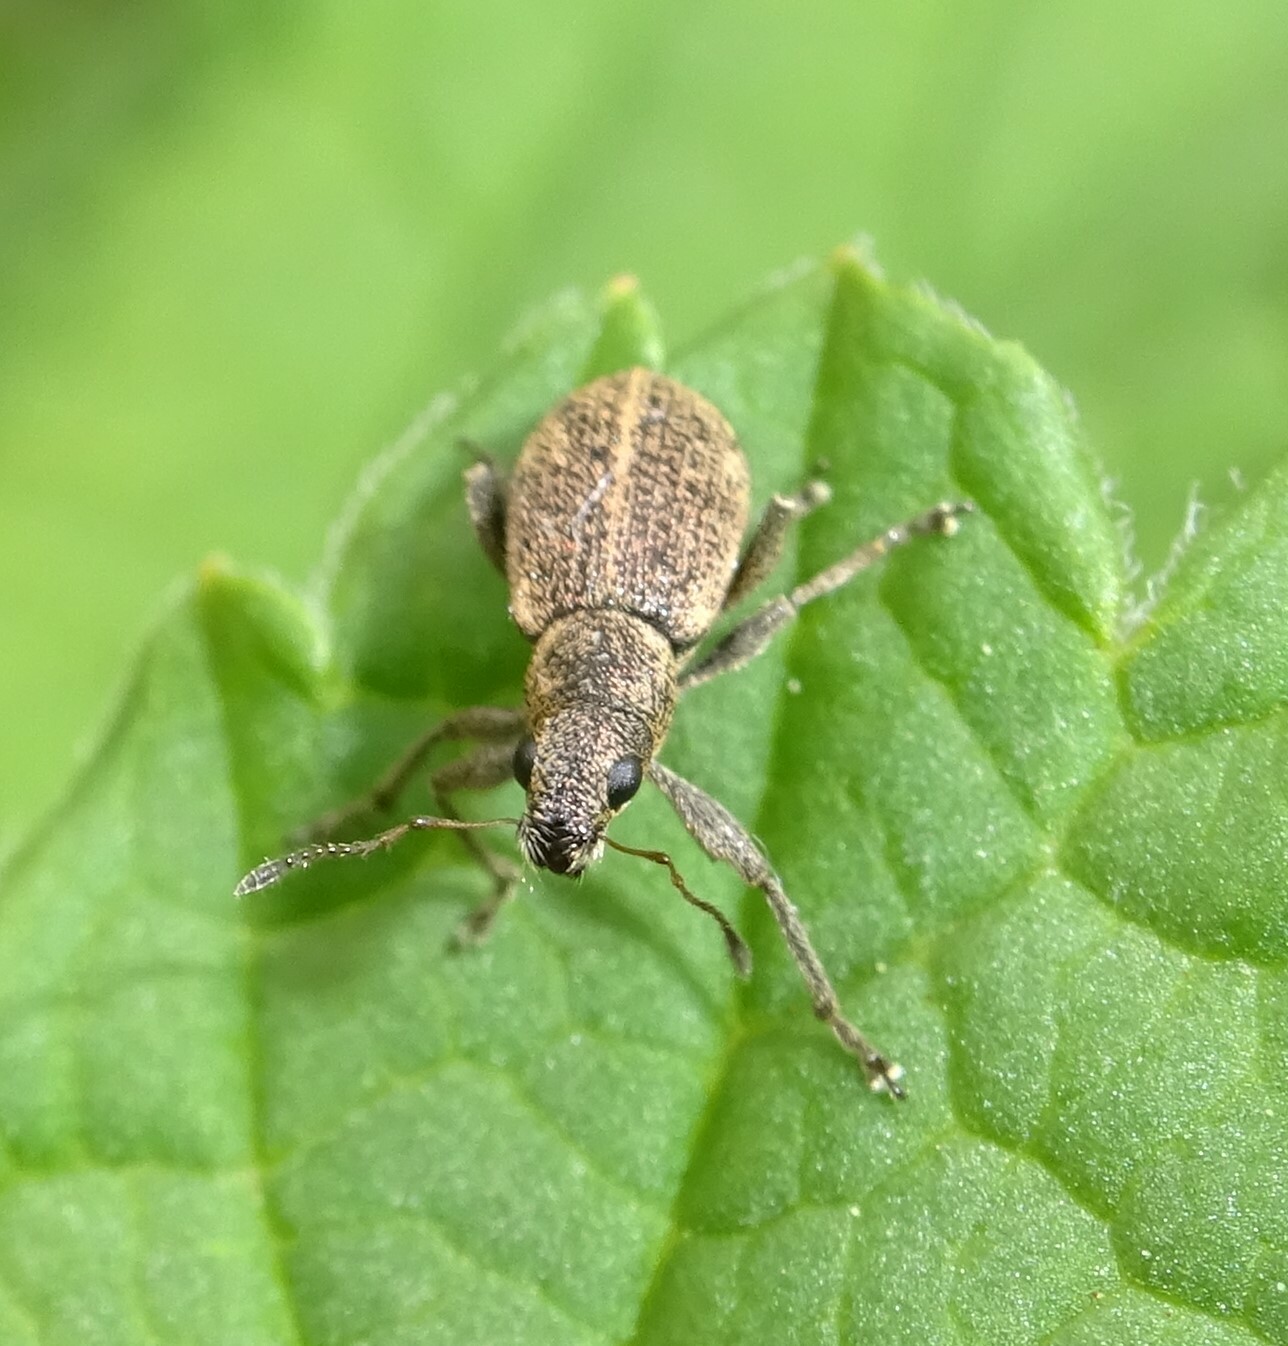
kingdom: Animalia
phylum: Arthropoda
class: Insecta
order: Coleoptera
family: Curculionidae
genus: Polydrusus
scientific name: Polydrusus inustus
